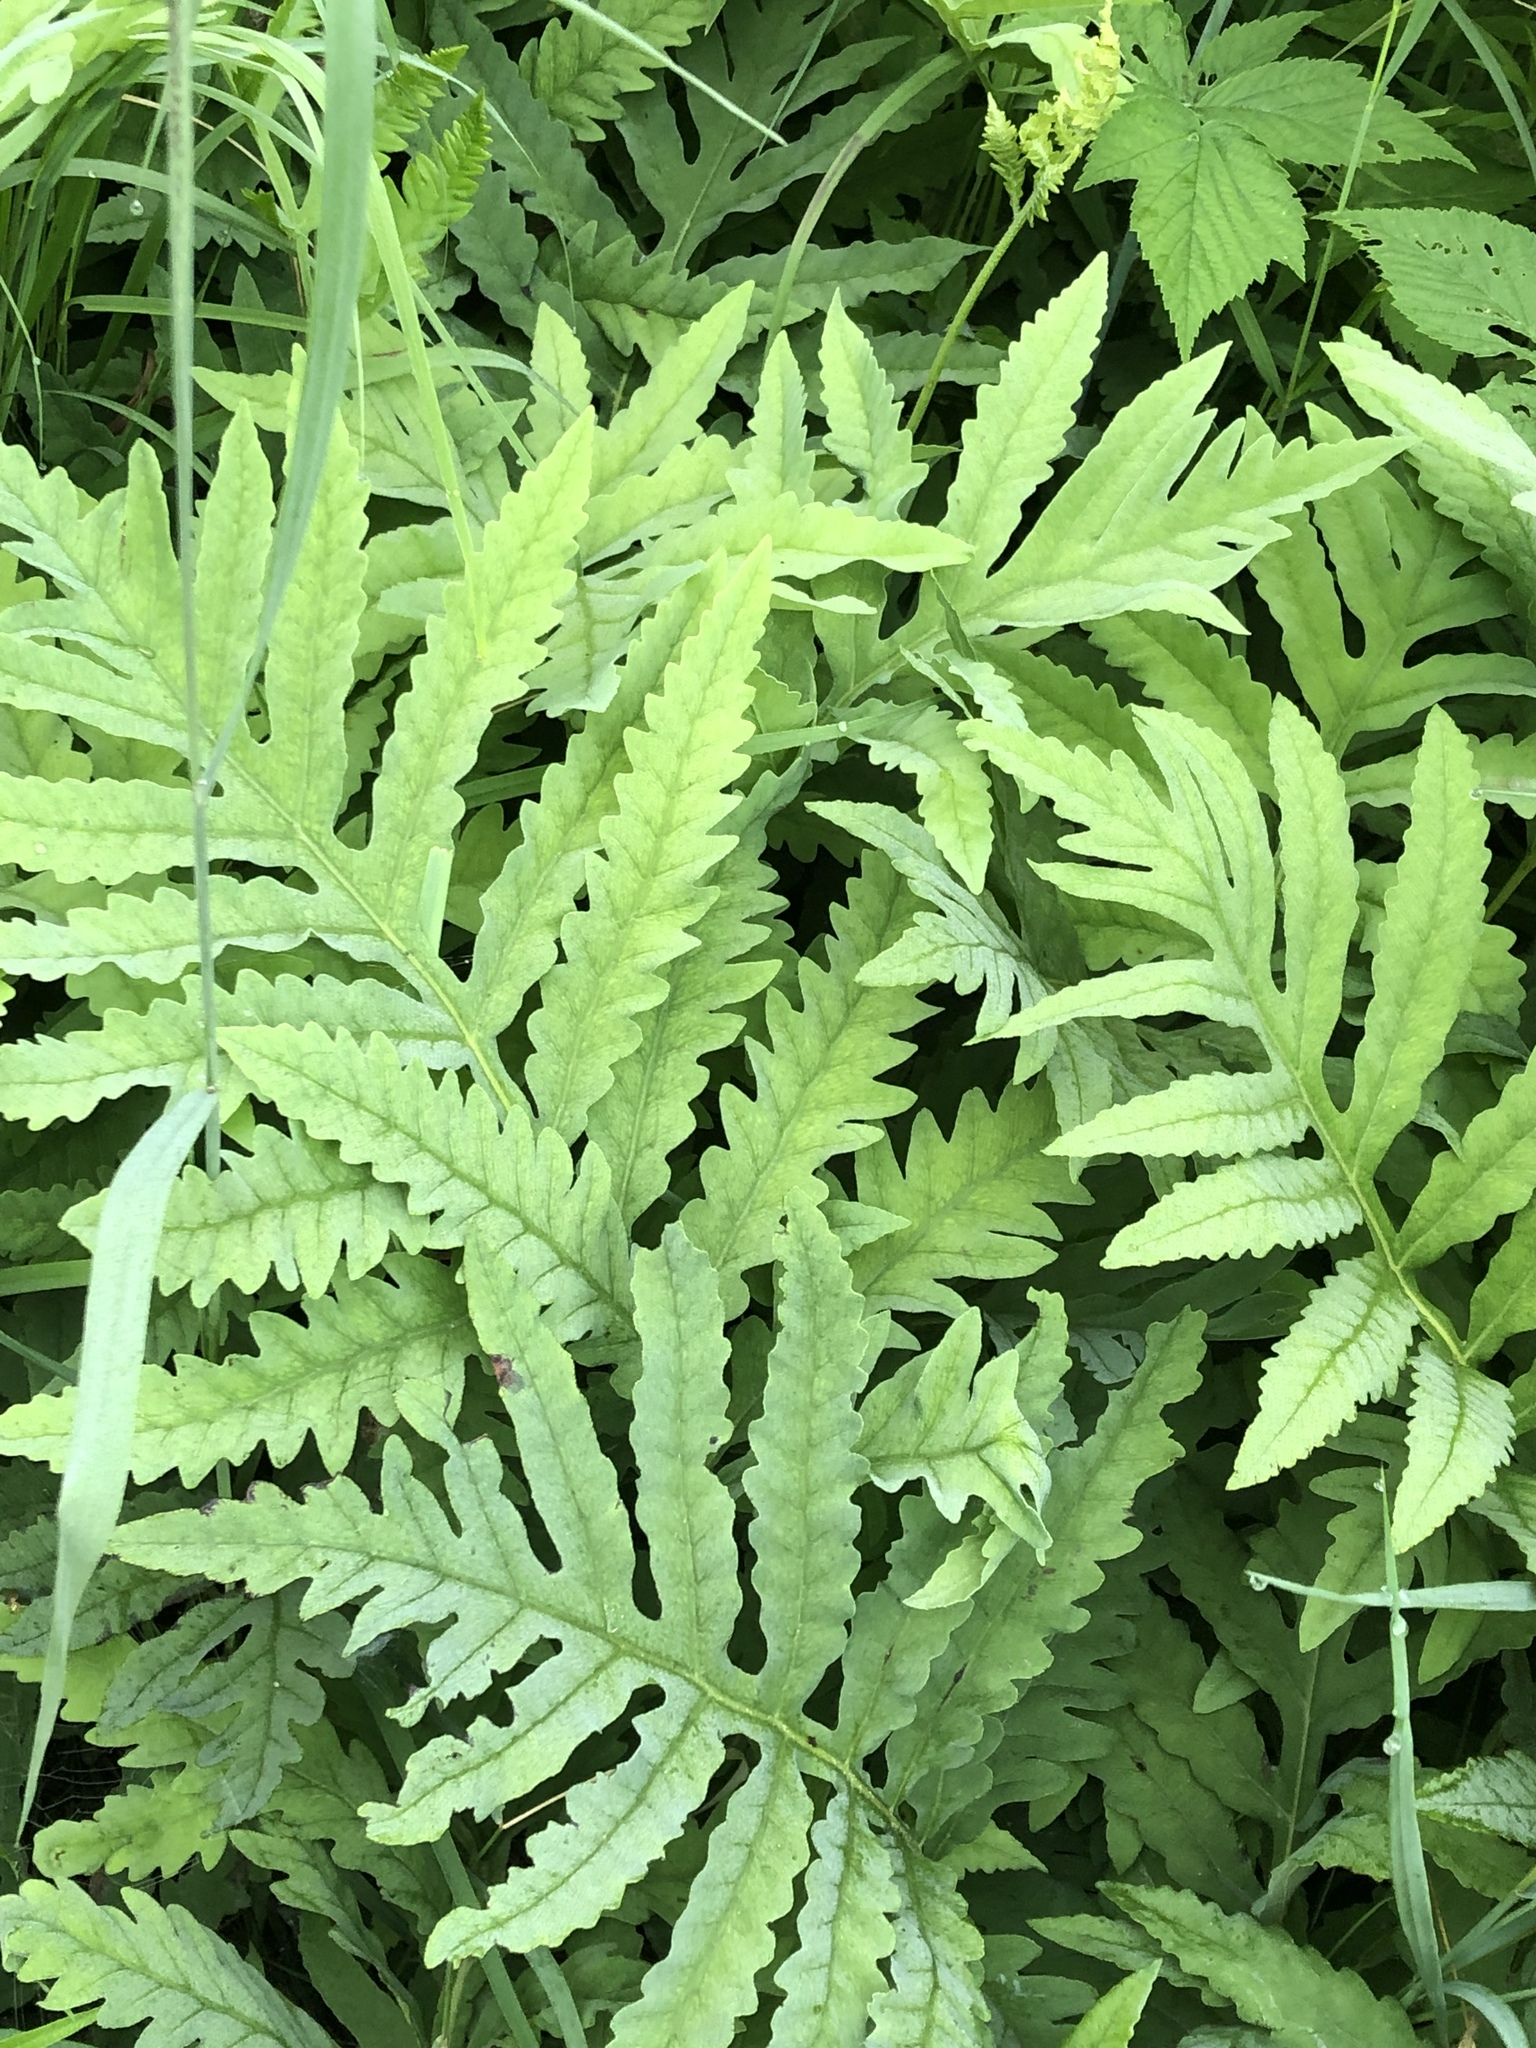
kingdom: Plantae
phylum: Tracheophyta
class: Polypodiopsida
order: Polypodiales
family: Onocleaceae
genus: Onoclea
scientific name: Onoclea sensibilis
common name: Sensitive fern
